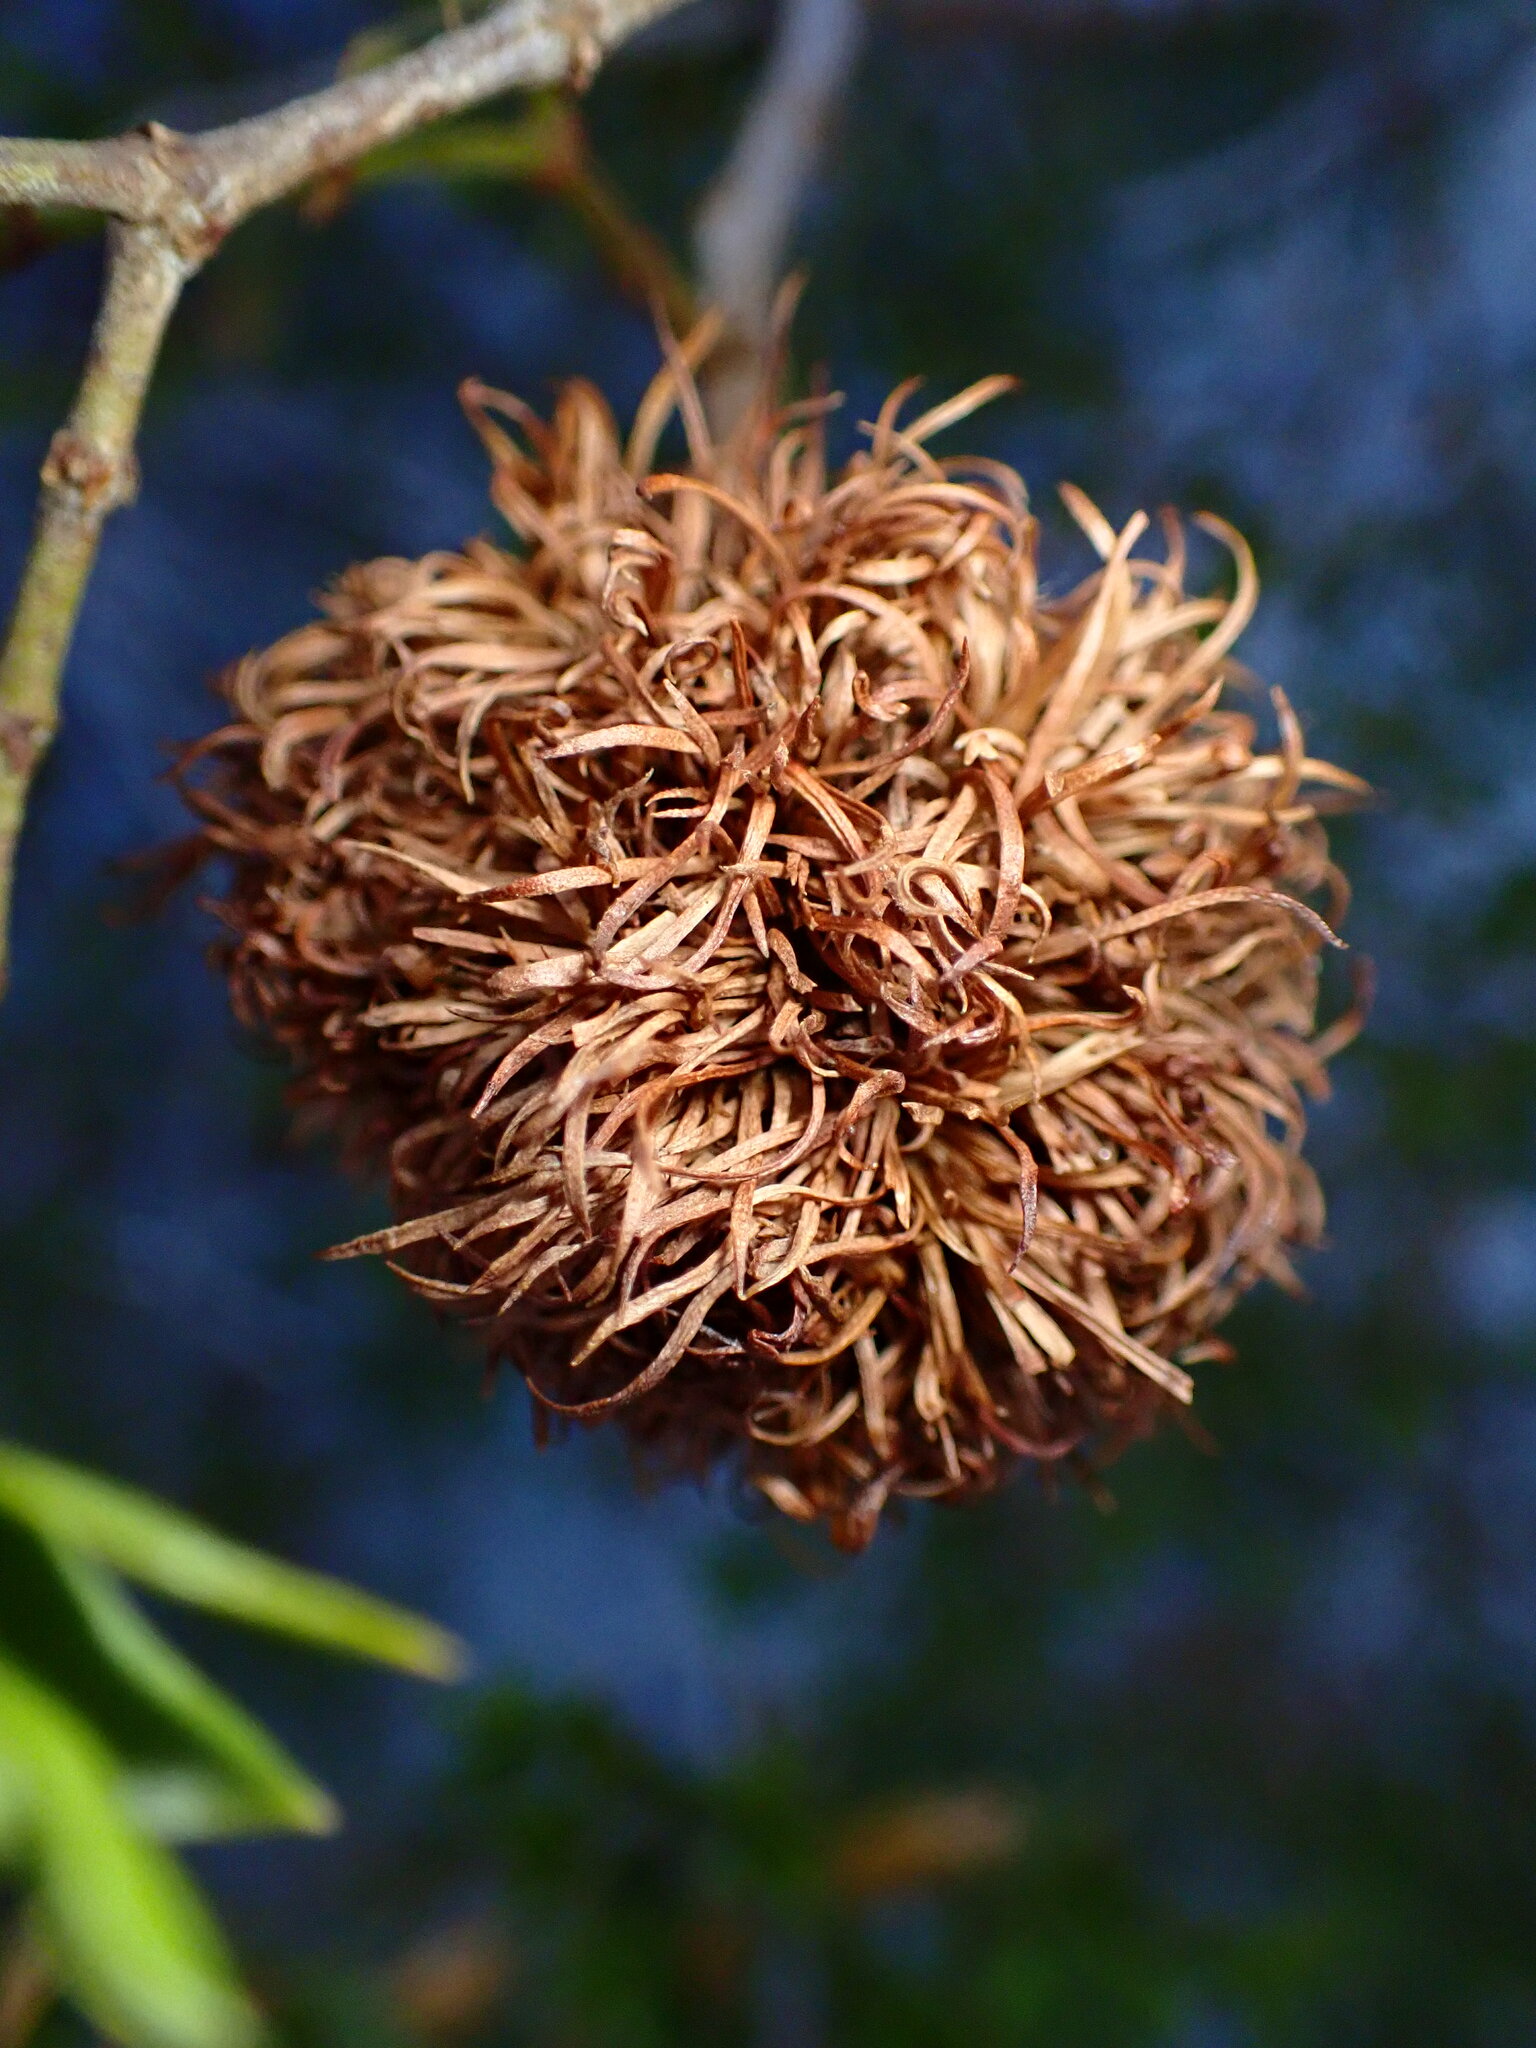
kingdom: Animalia
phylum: Arthropoda
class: Insecta
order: Diptera
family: Cecidomyiidae
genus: Asphondylia
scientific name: Asphondylia auripila
